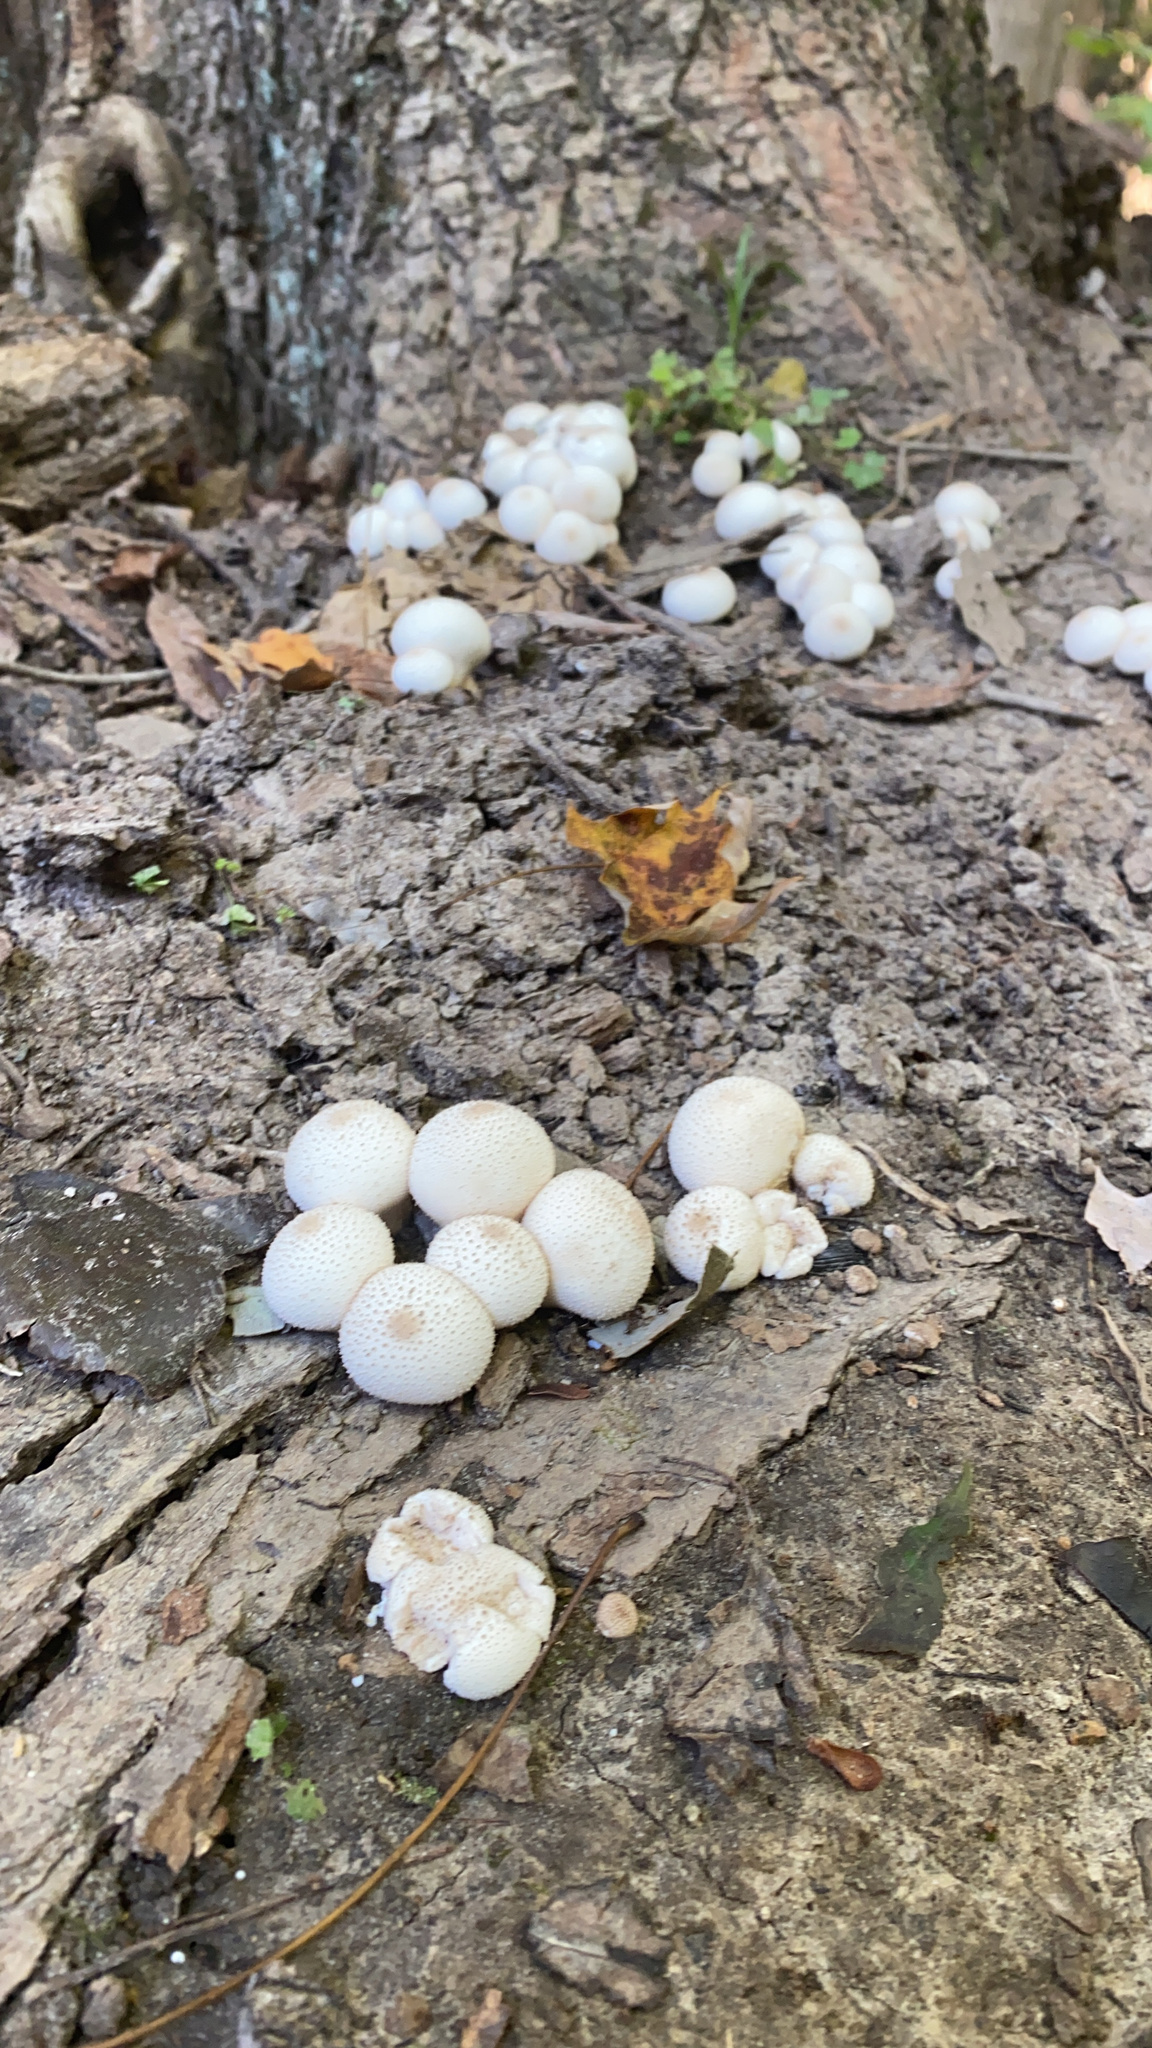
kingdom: Fungi
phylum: Basidiomycota
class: Agaricomycetes
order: Agaricales
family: Lycoperdaceae
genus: Lycoperdon
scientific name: Lycoperdon perlatum
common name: Common puffball
